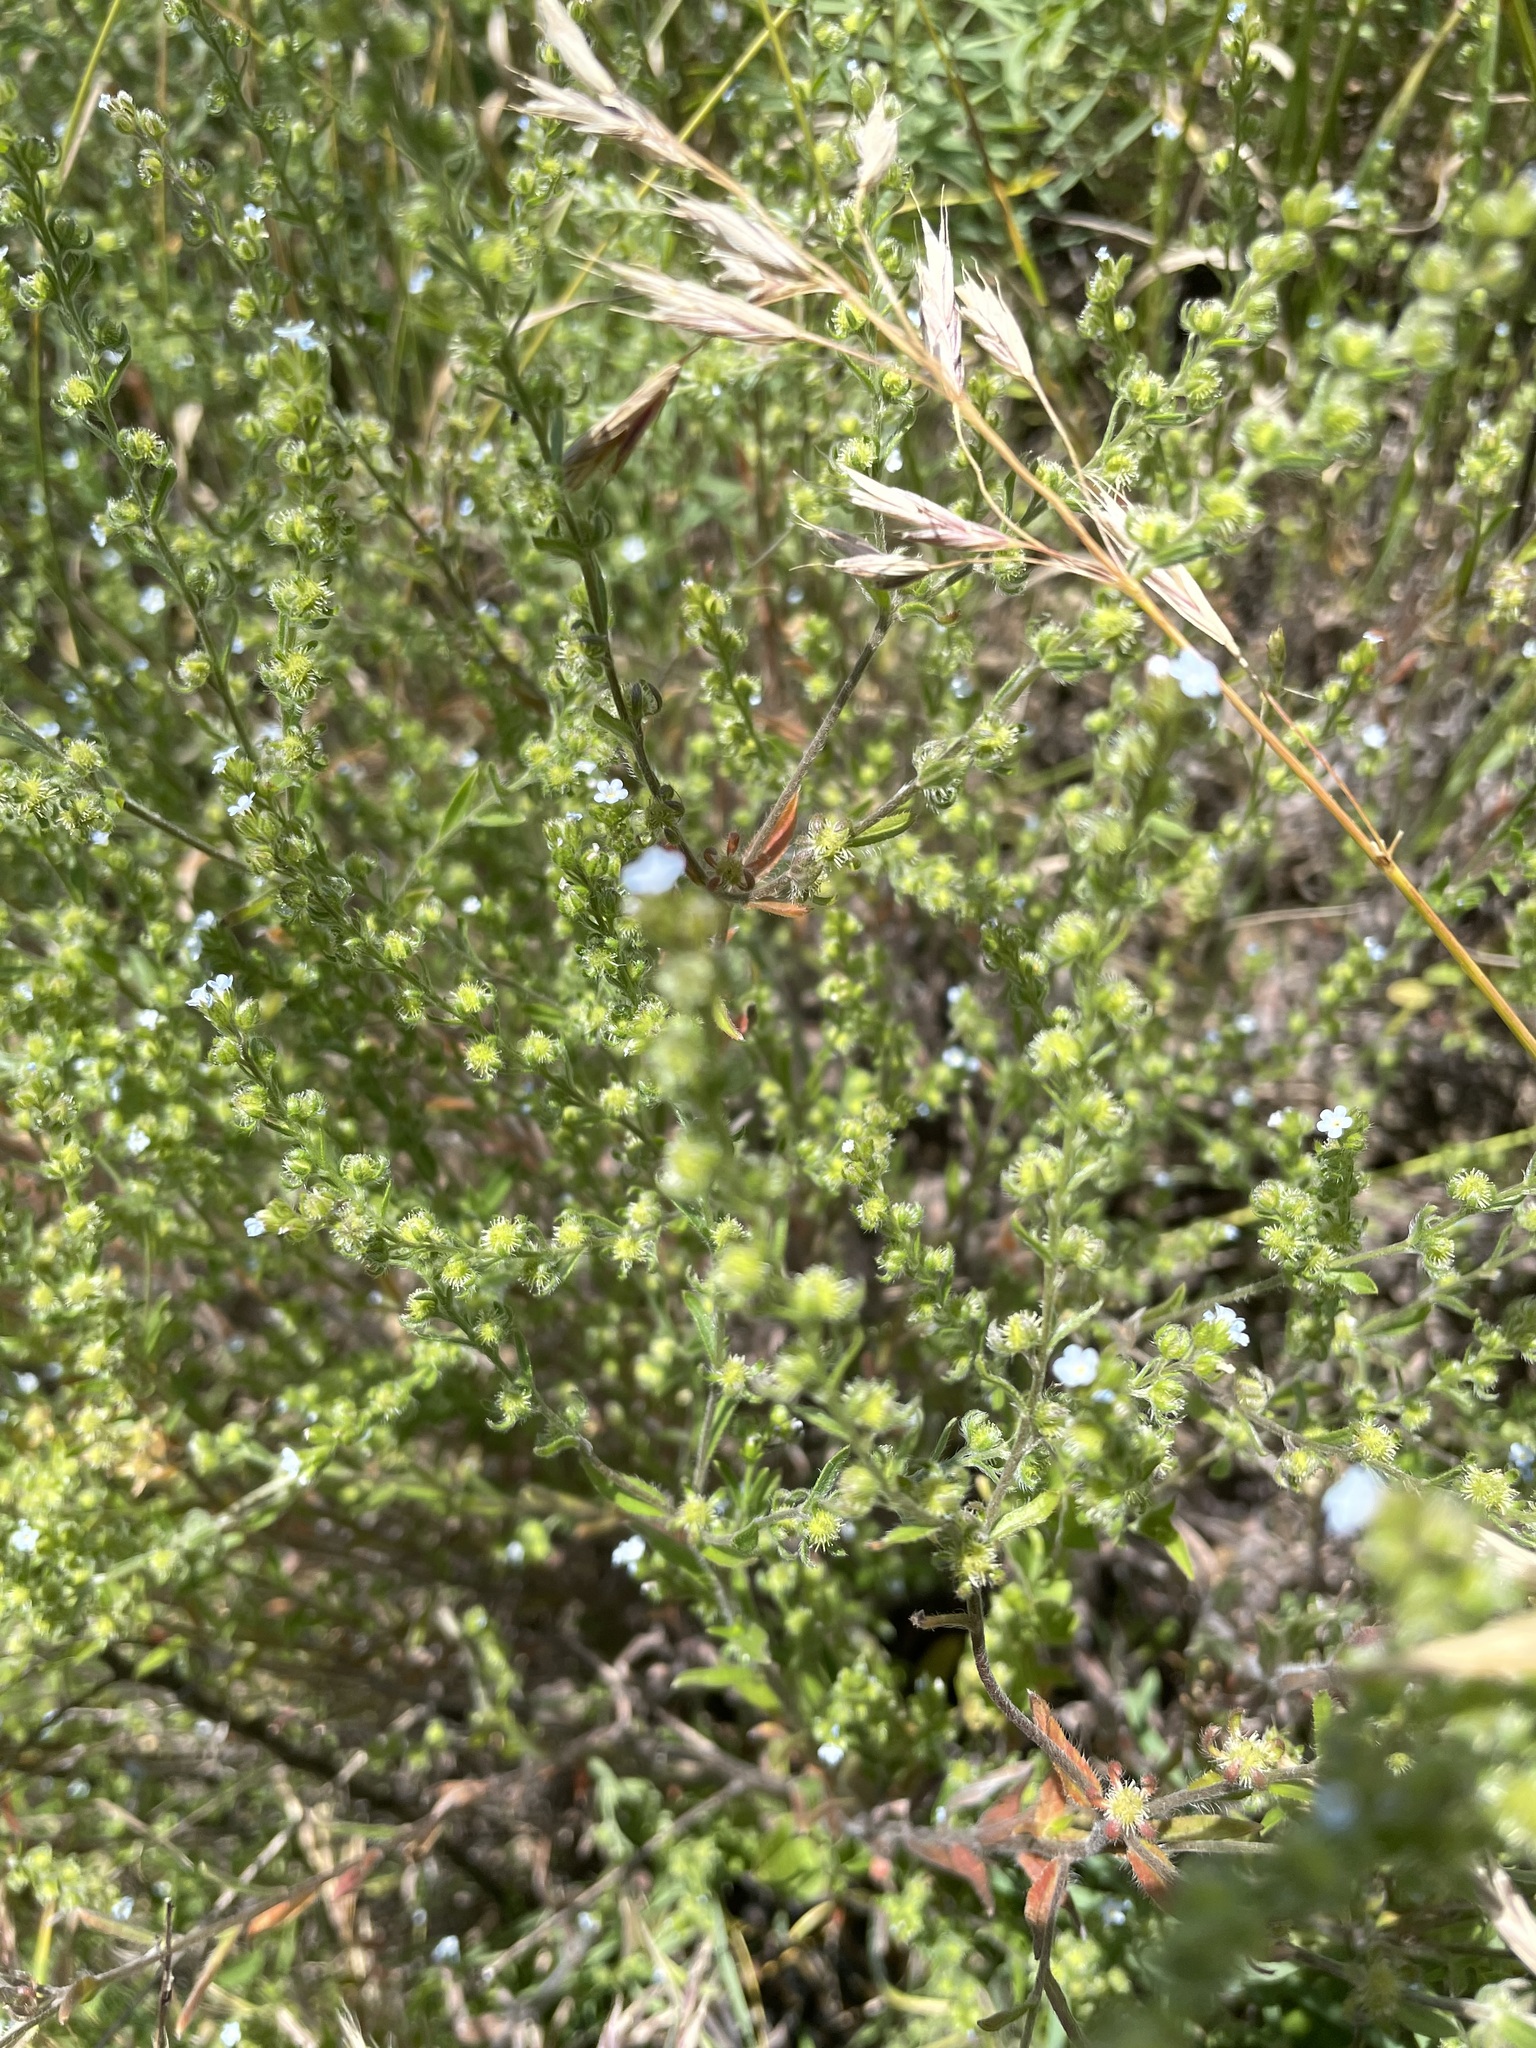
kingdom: Plantae
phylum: Tracheophyta
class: Magnoliopsida
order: Boraginales
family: Boraginaceae
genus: Lappula
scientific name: Lappula squarrosa
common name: European stickseed
